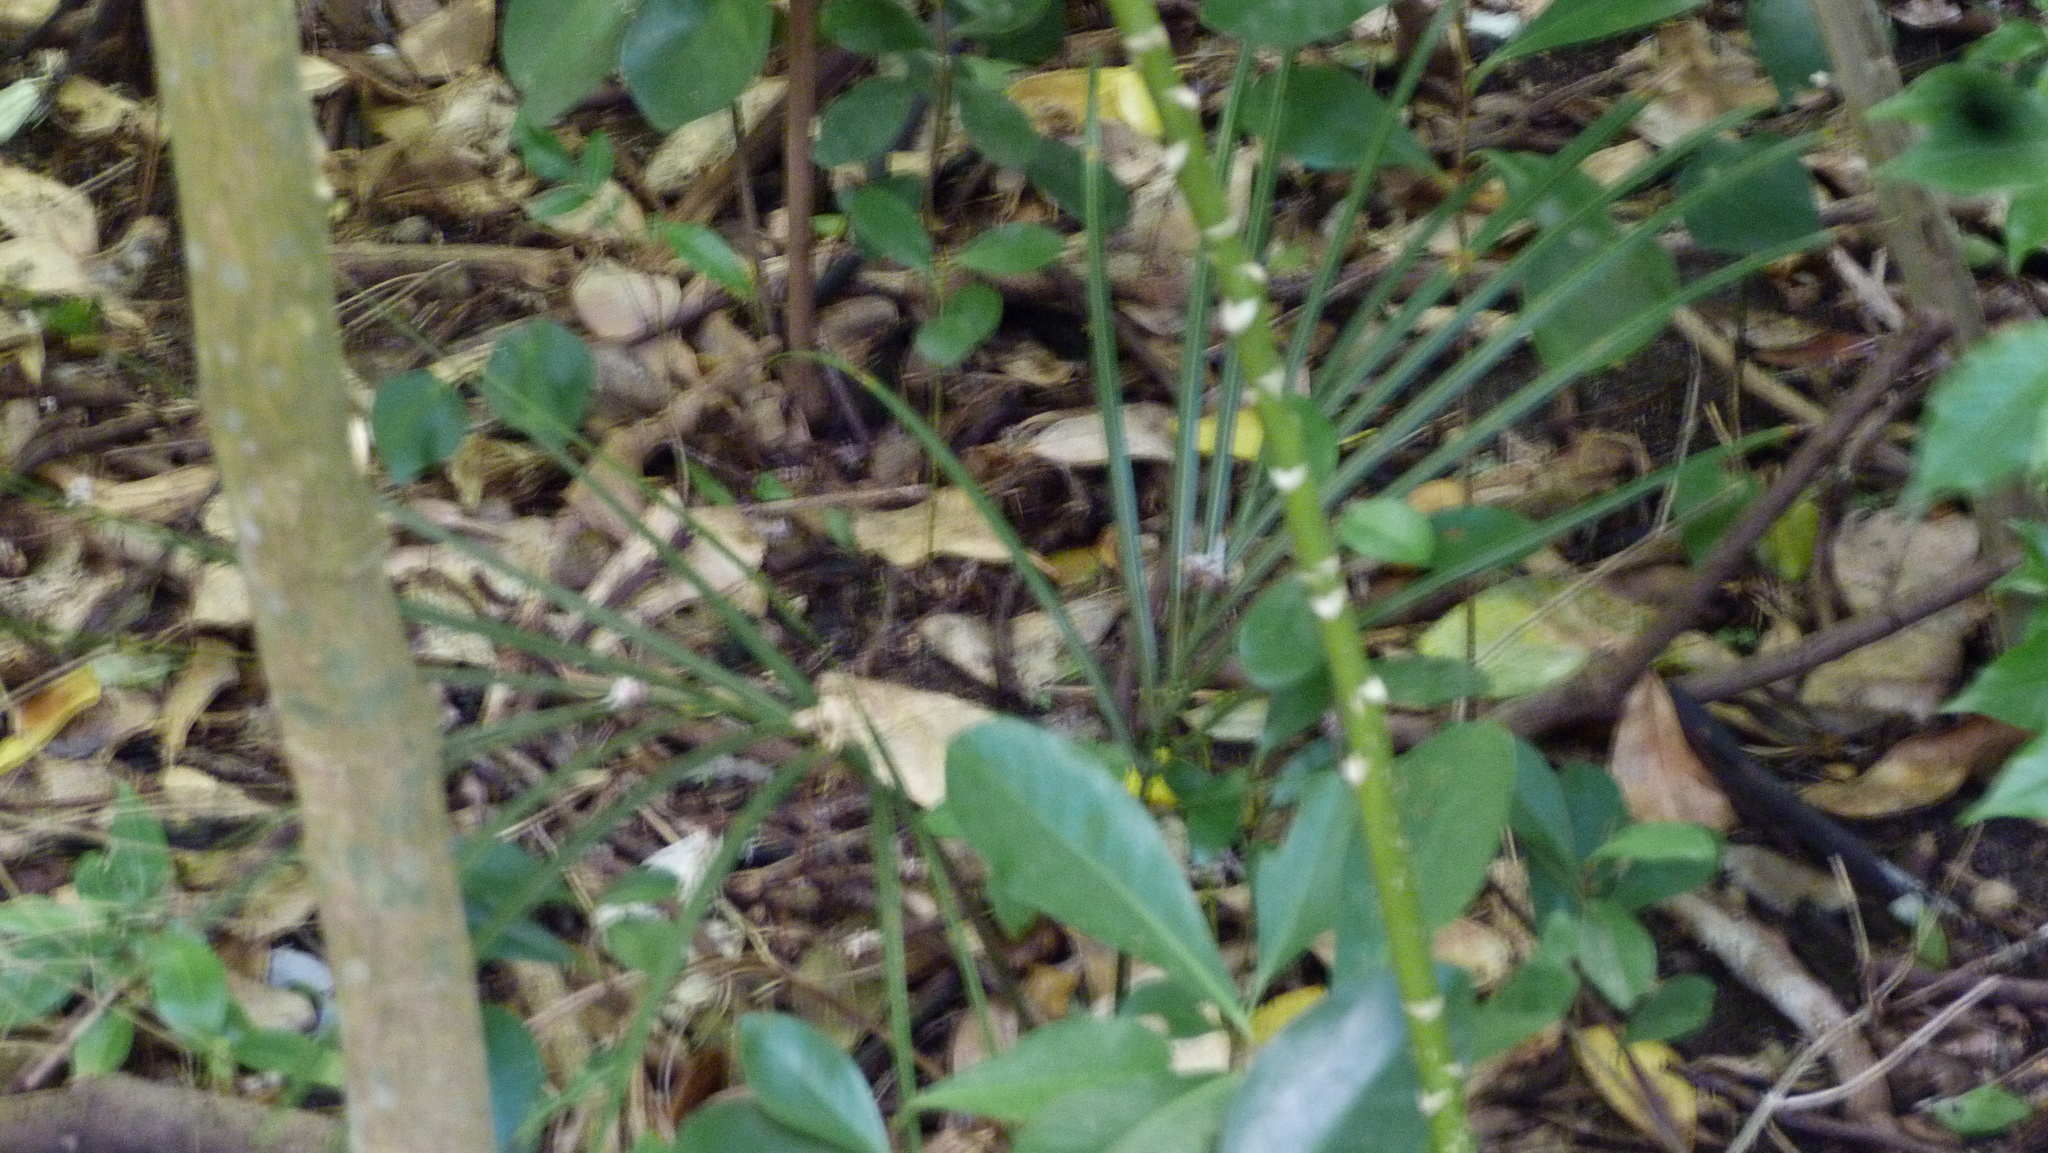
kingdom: Plantae
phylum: Tracheophyta
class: Liliopsida
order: Arecales
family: Arecaceae
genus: Rhopalostylis
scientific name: Rhopalostylis sapida
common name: Feather-duster palm
